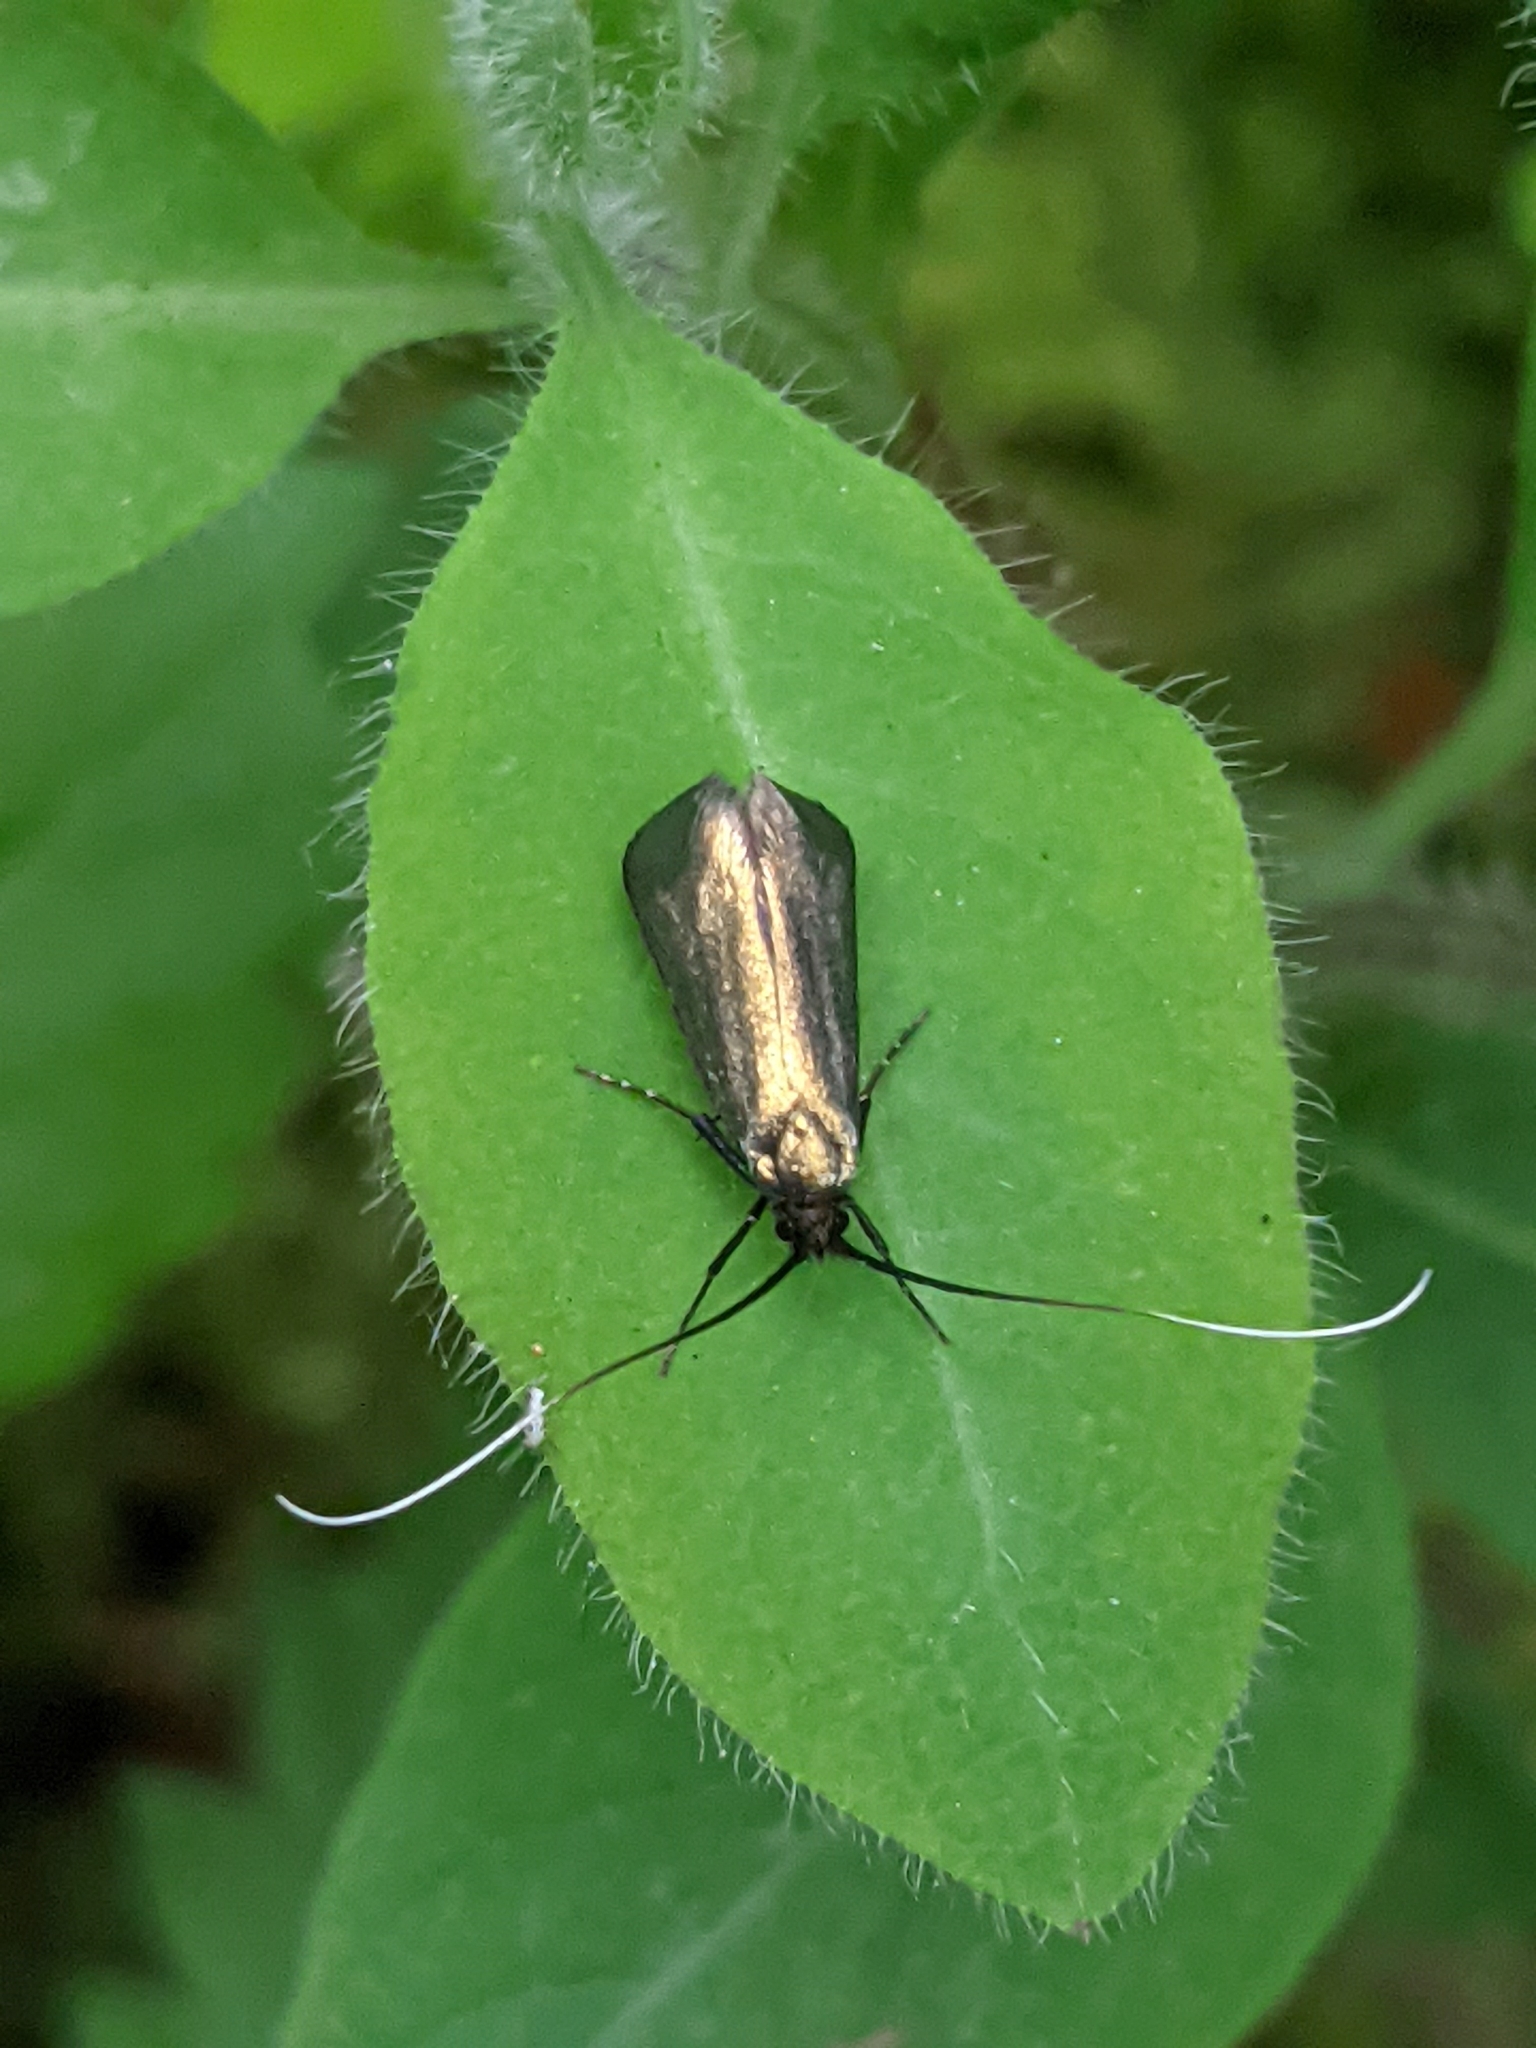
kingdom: Animalia
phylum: Arthropoda
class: Insecta
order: Lepidoptera
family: Adelidae
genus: Adela
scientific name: Adela viridella
